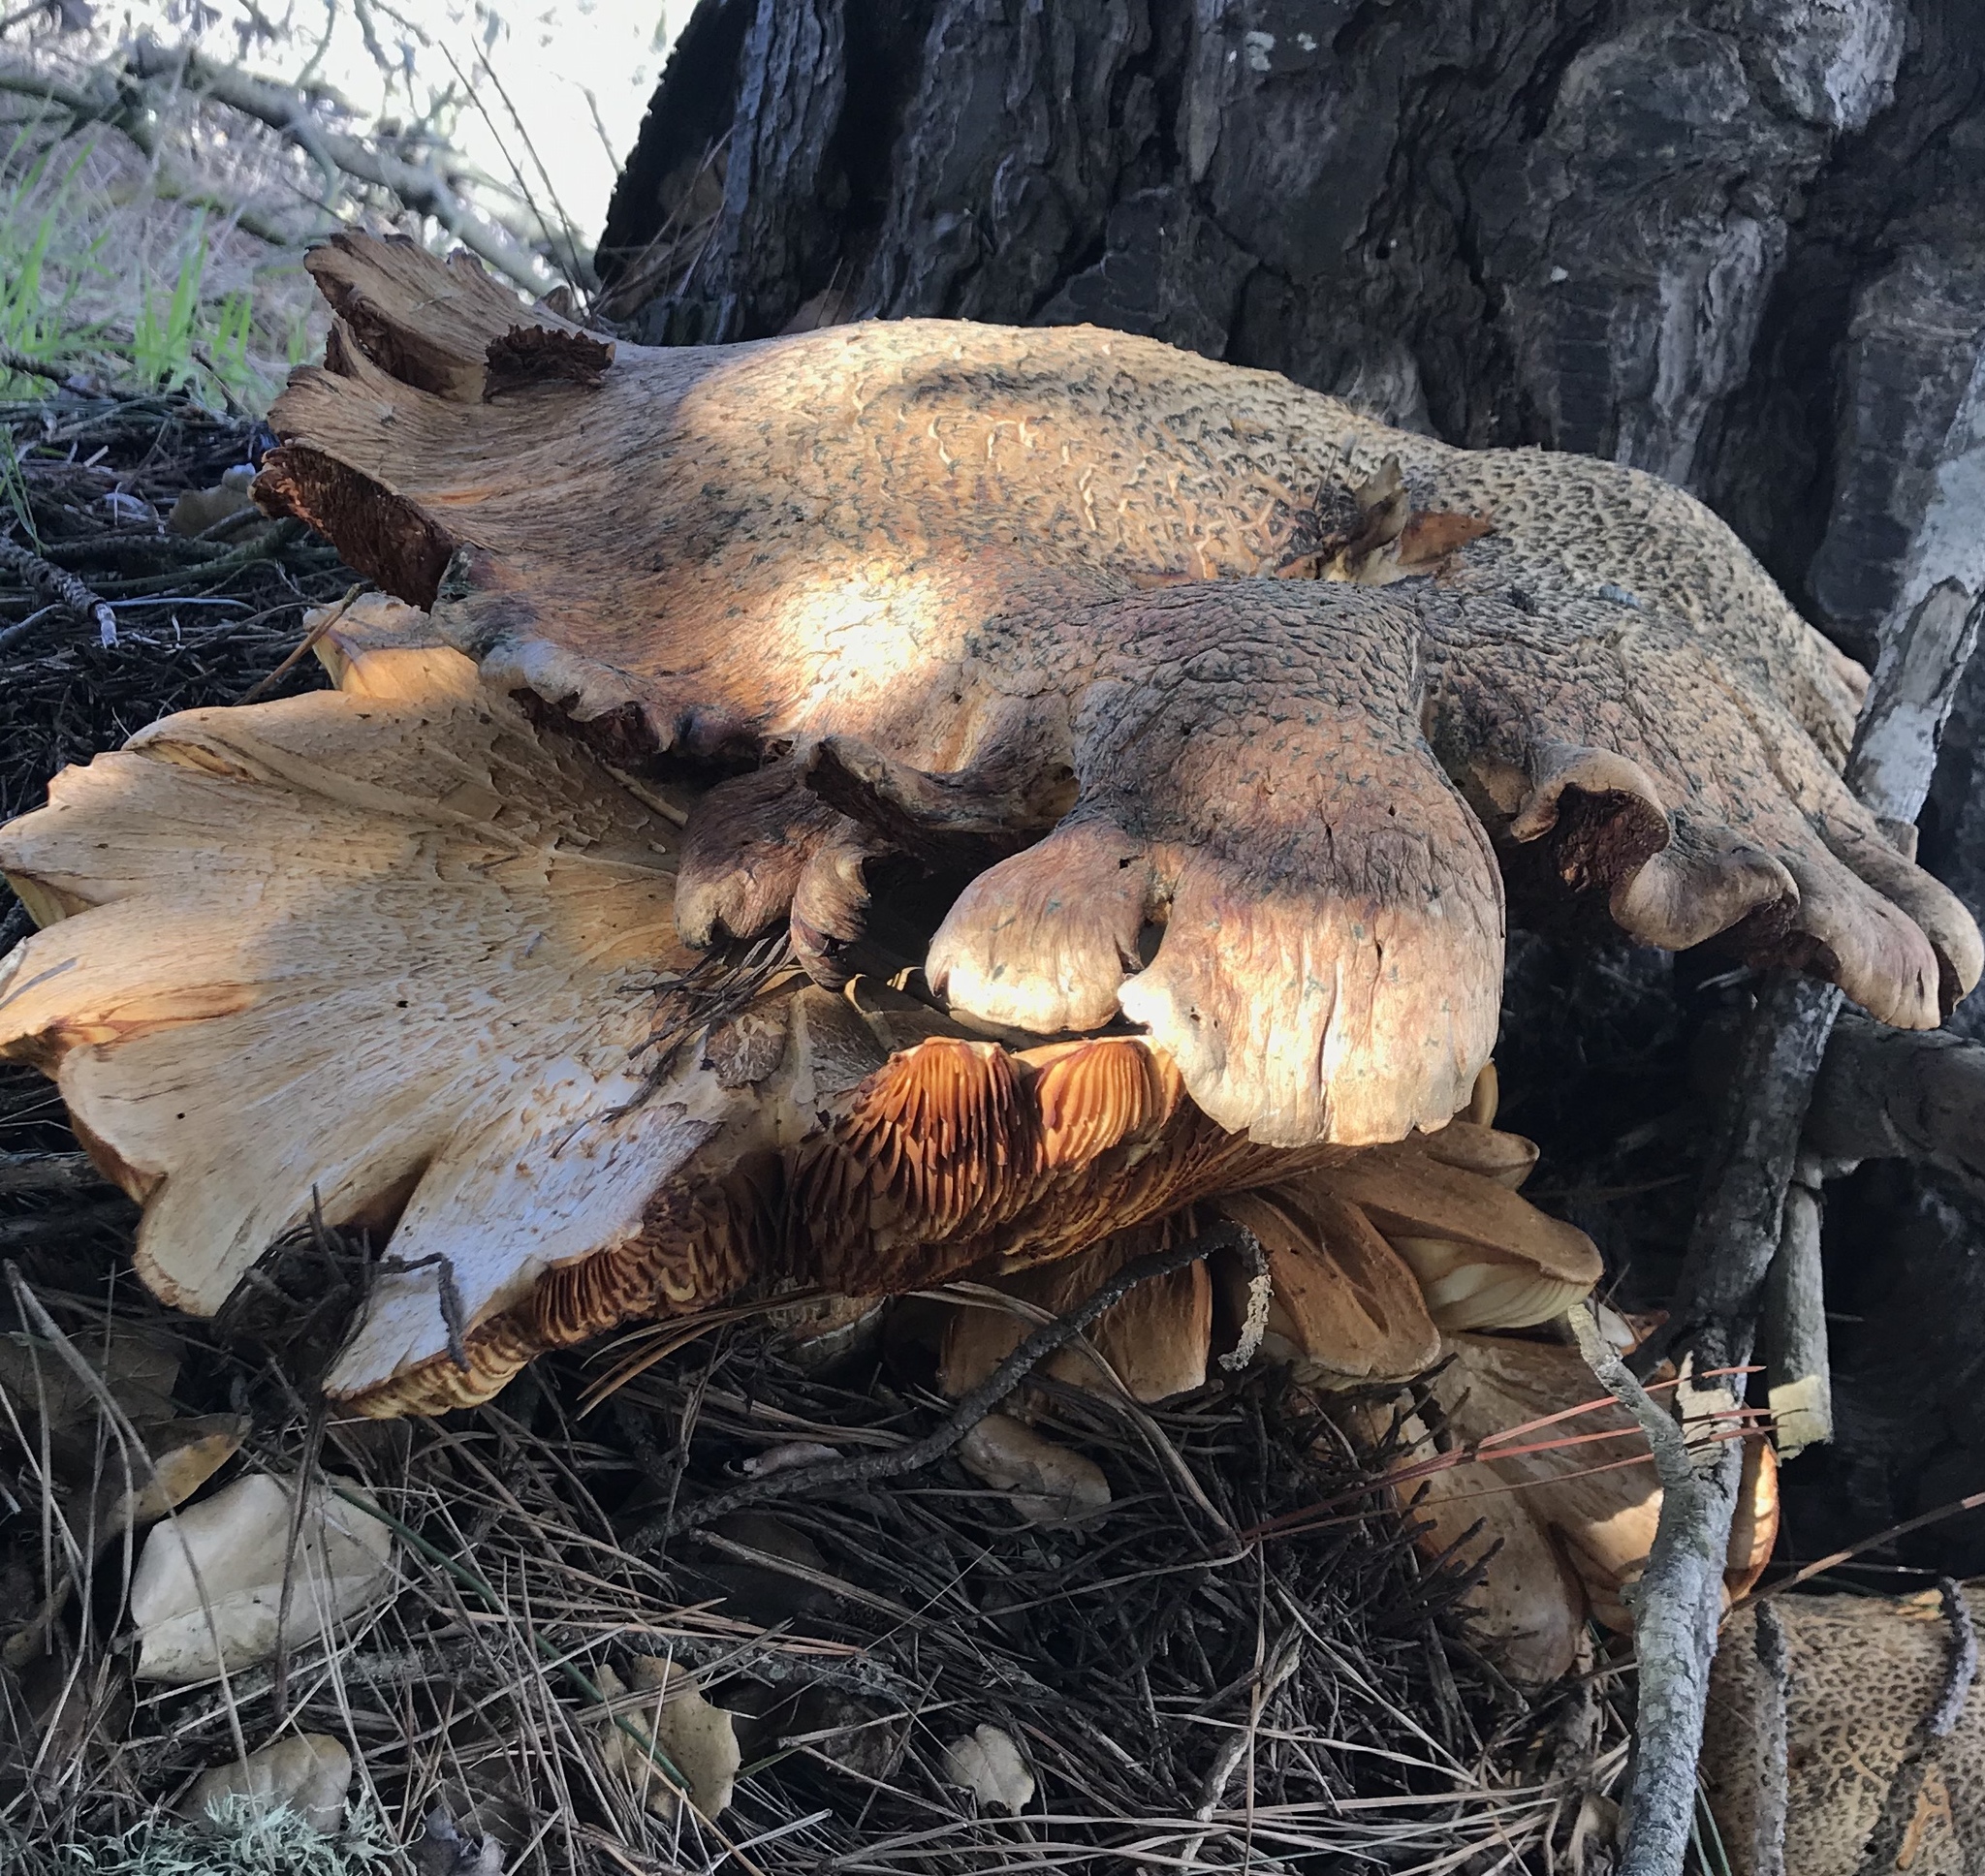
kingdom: Fungi
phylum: Basidiomycota
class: Agaricomycetes
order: Agaricales
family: Hymenogastraceae
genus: Gymnopilus
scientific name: Gymnopilus ventricosus
